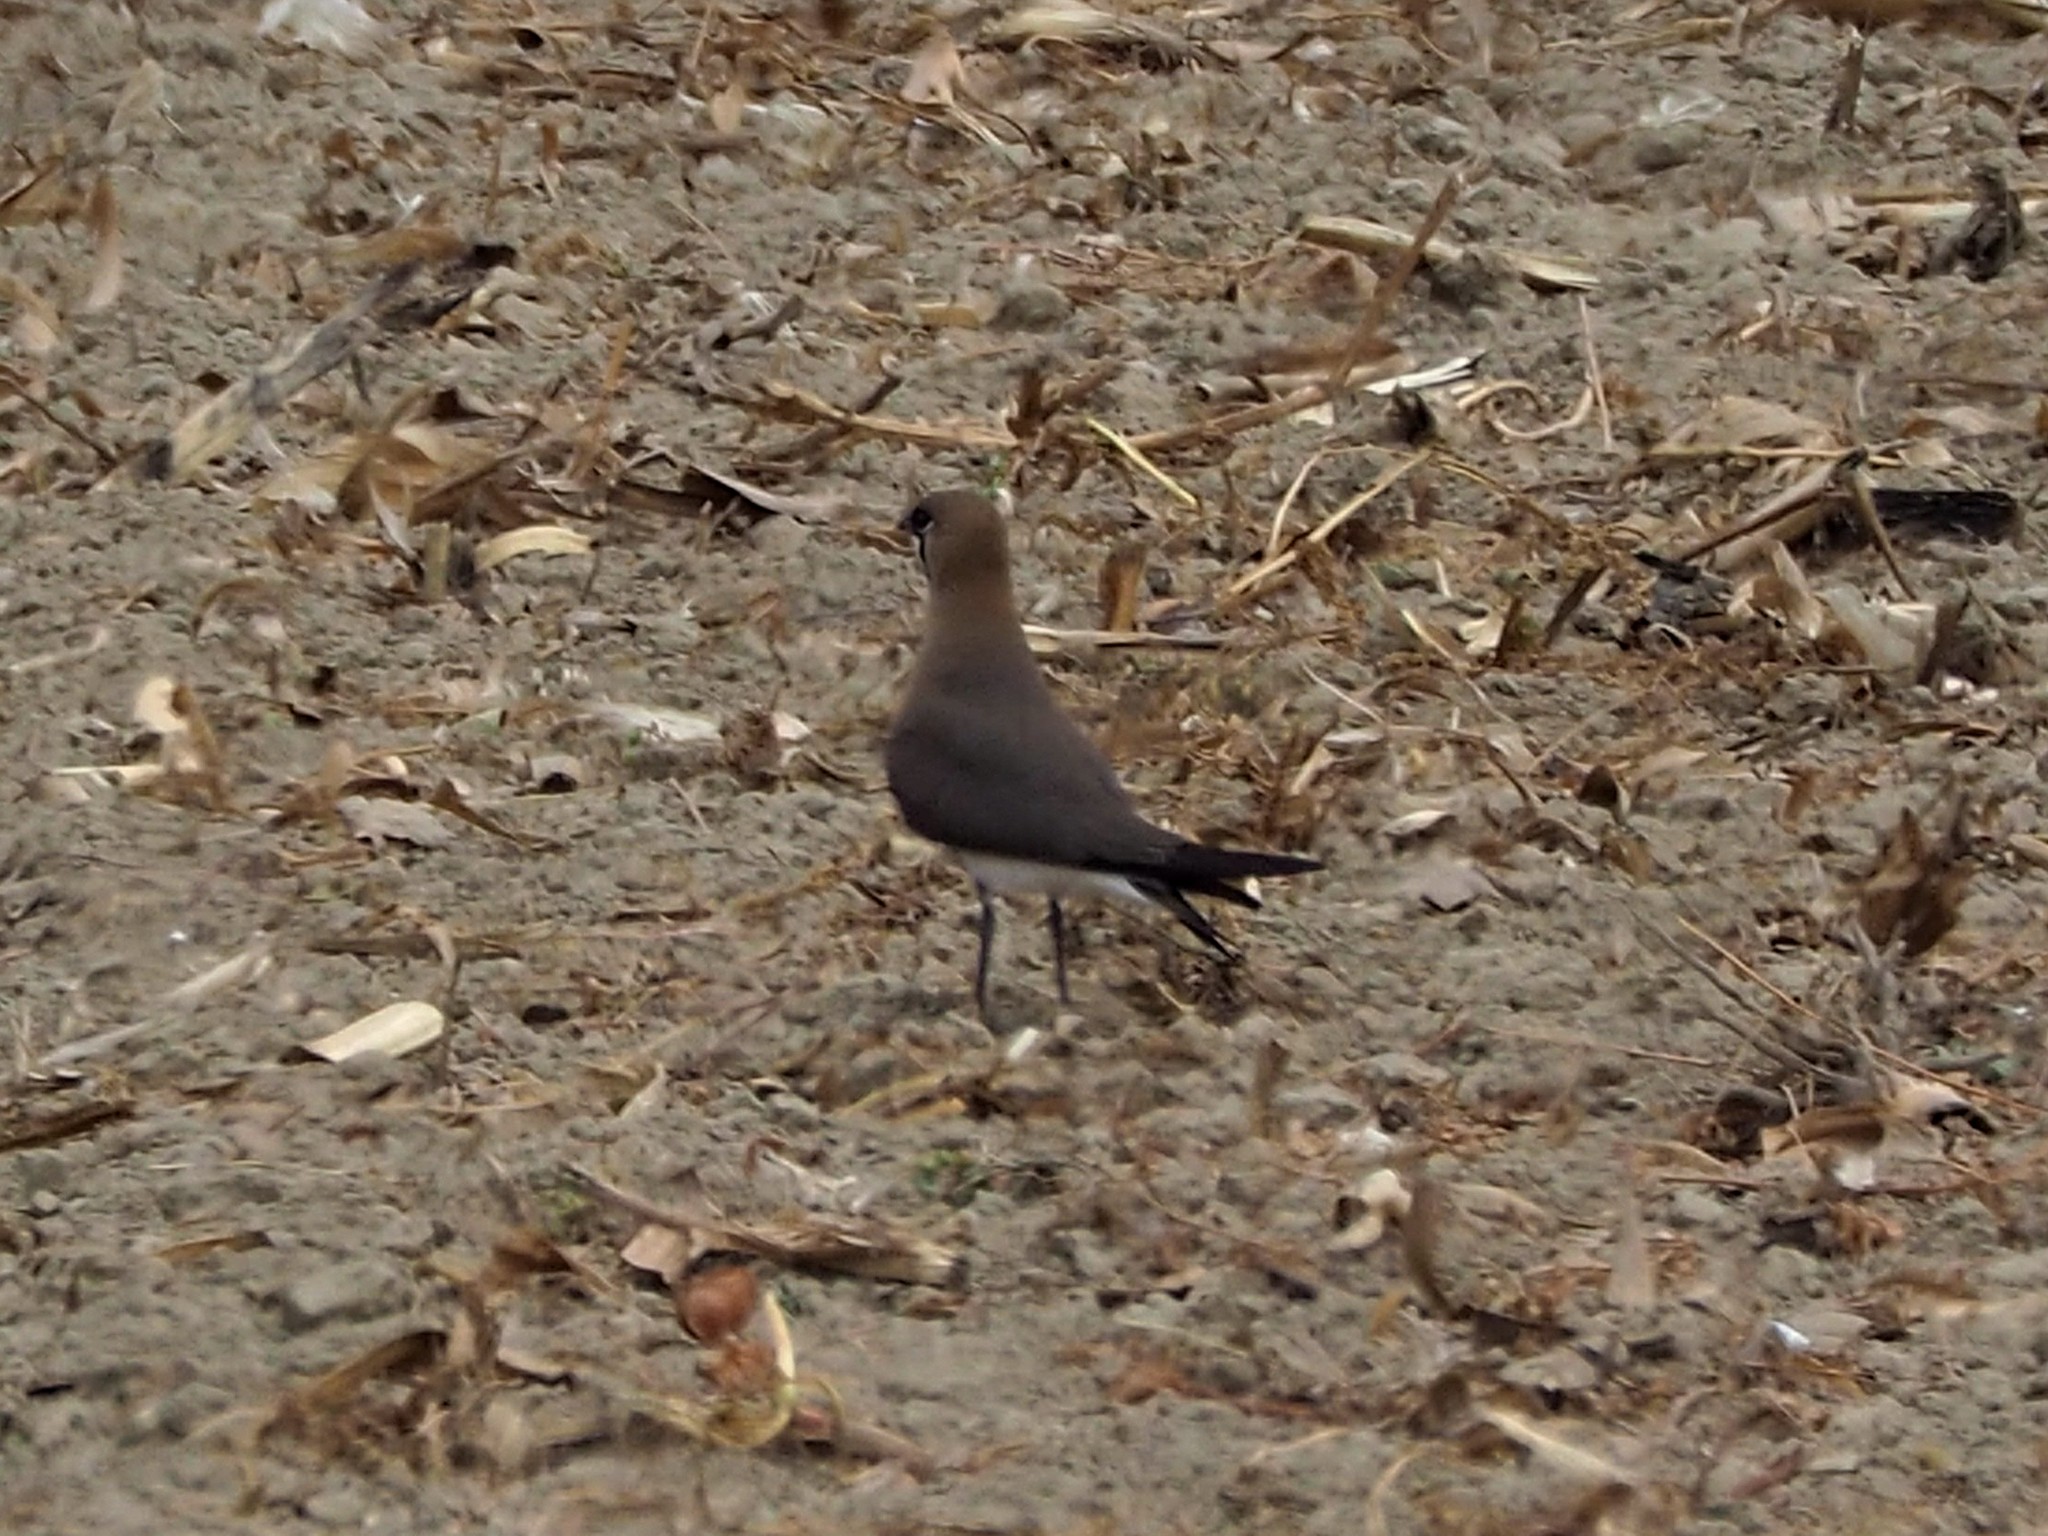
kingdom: Animalia
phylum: Chordata
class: Aves
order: Charadriiformes
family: Glareolidae
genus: Glareola
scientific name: Glareola maldivarum
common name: Oriental pratincole
